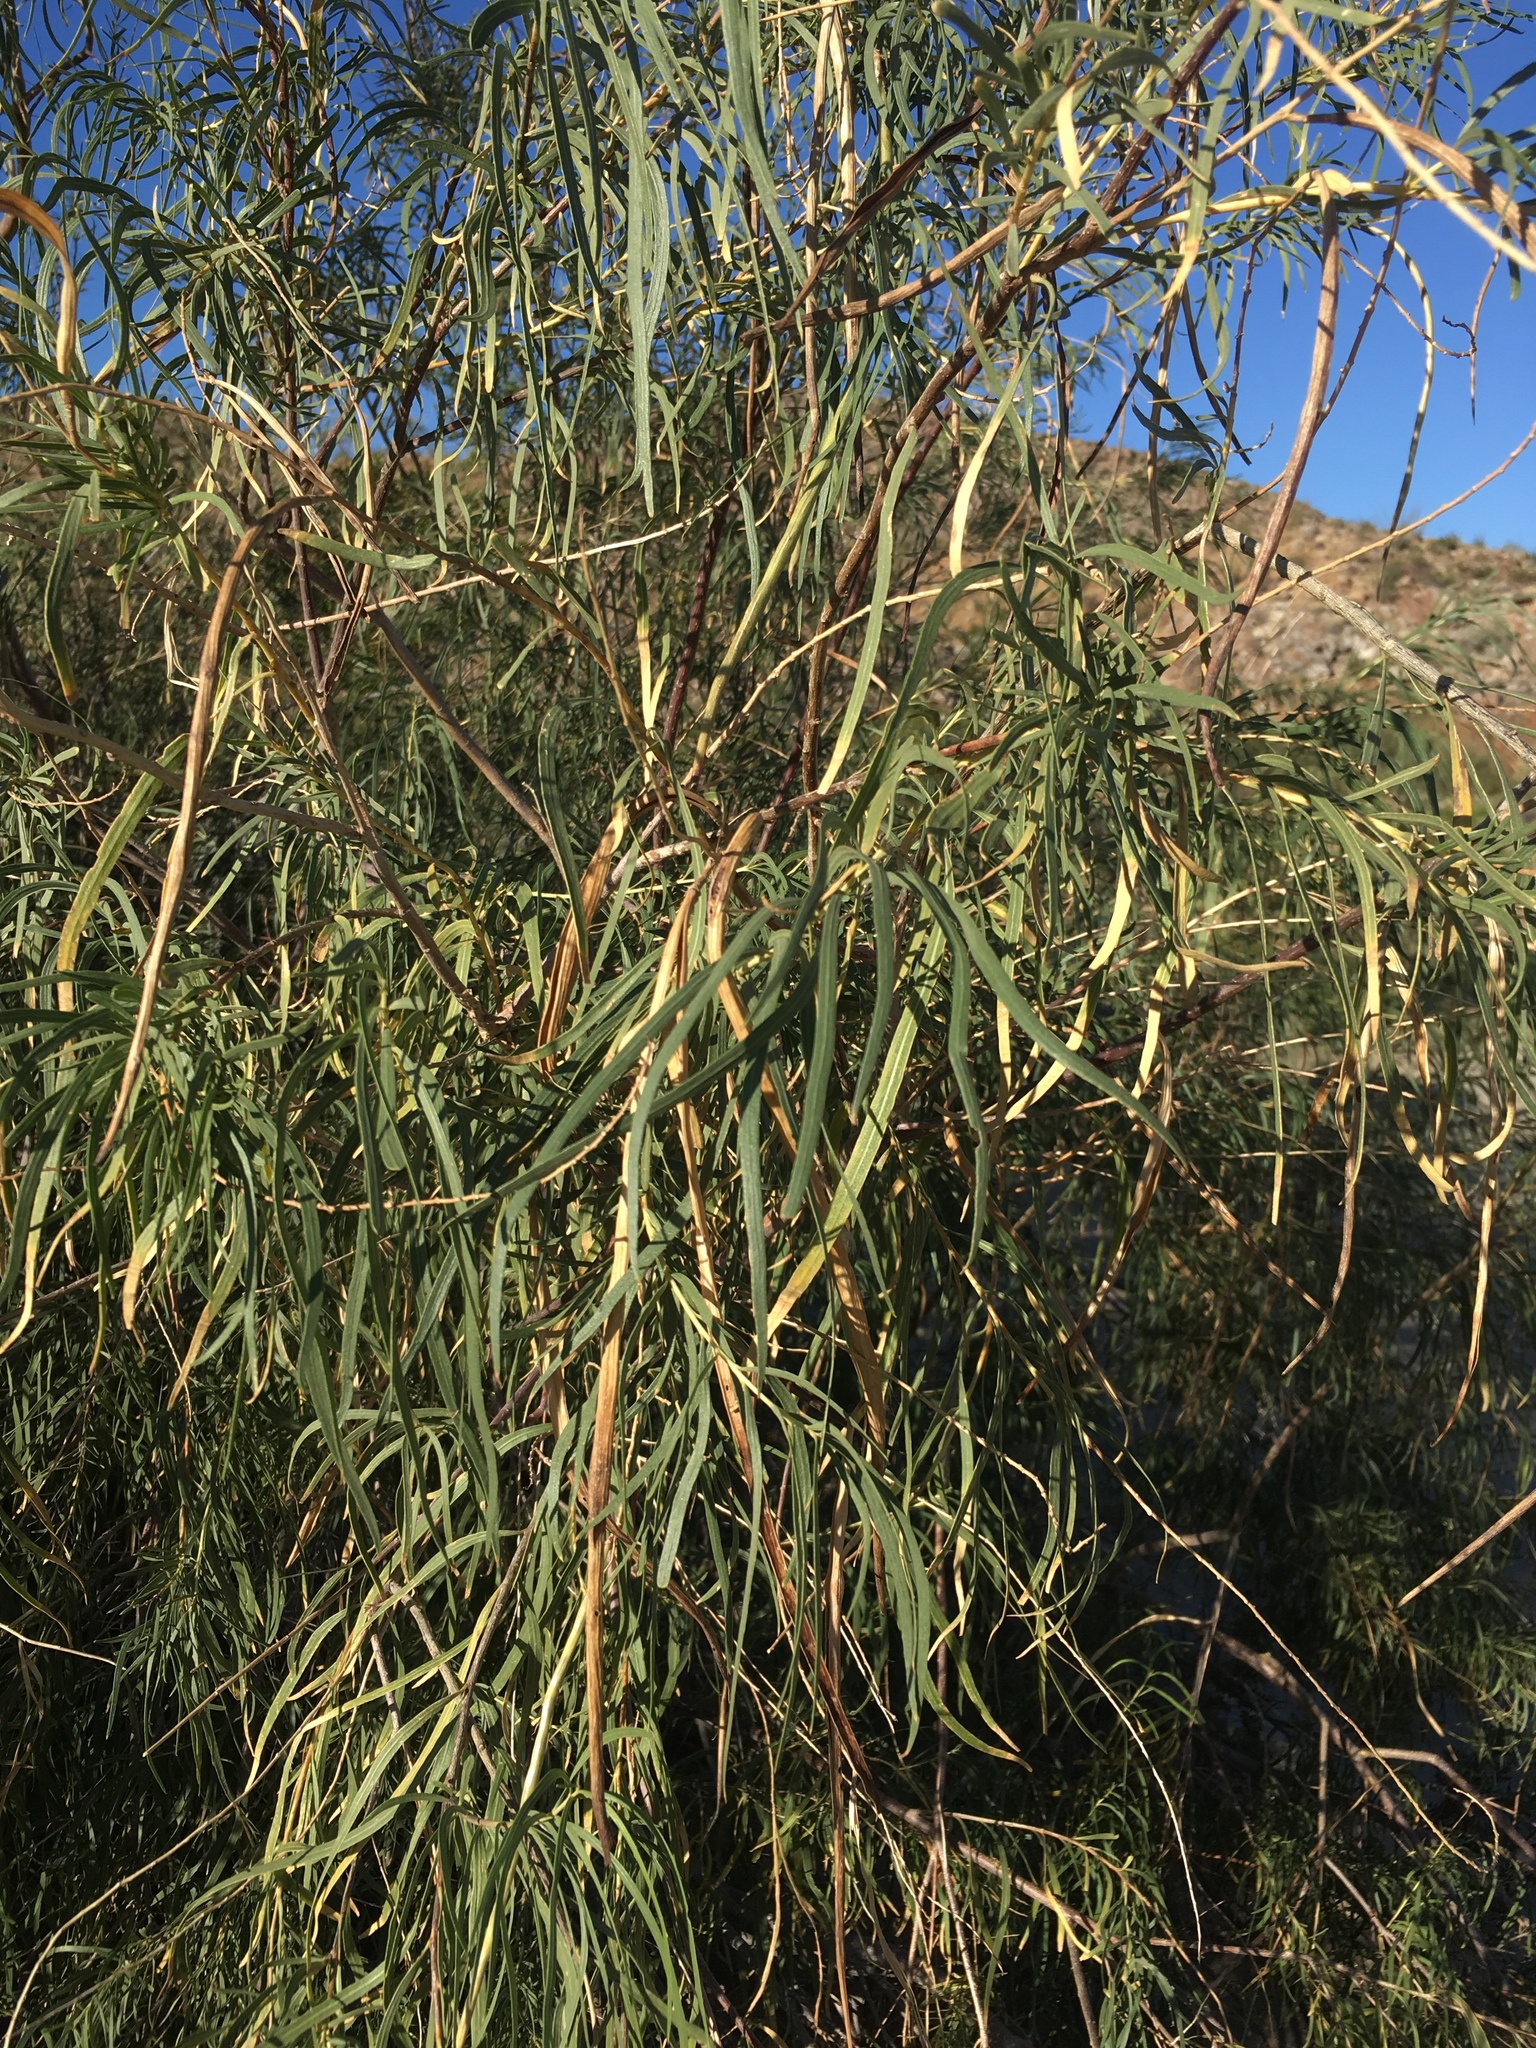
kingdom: Plantae
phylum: Tracheophyta
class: Magnoliopsida
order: Lamiales
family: Bignoniaceae
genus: Chilopsis
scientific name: Chilopsis linearis
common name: Desert-willow
